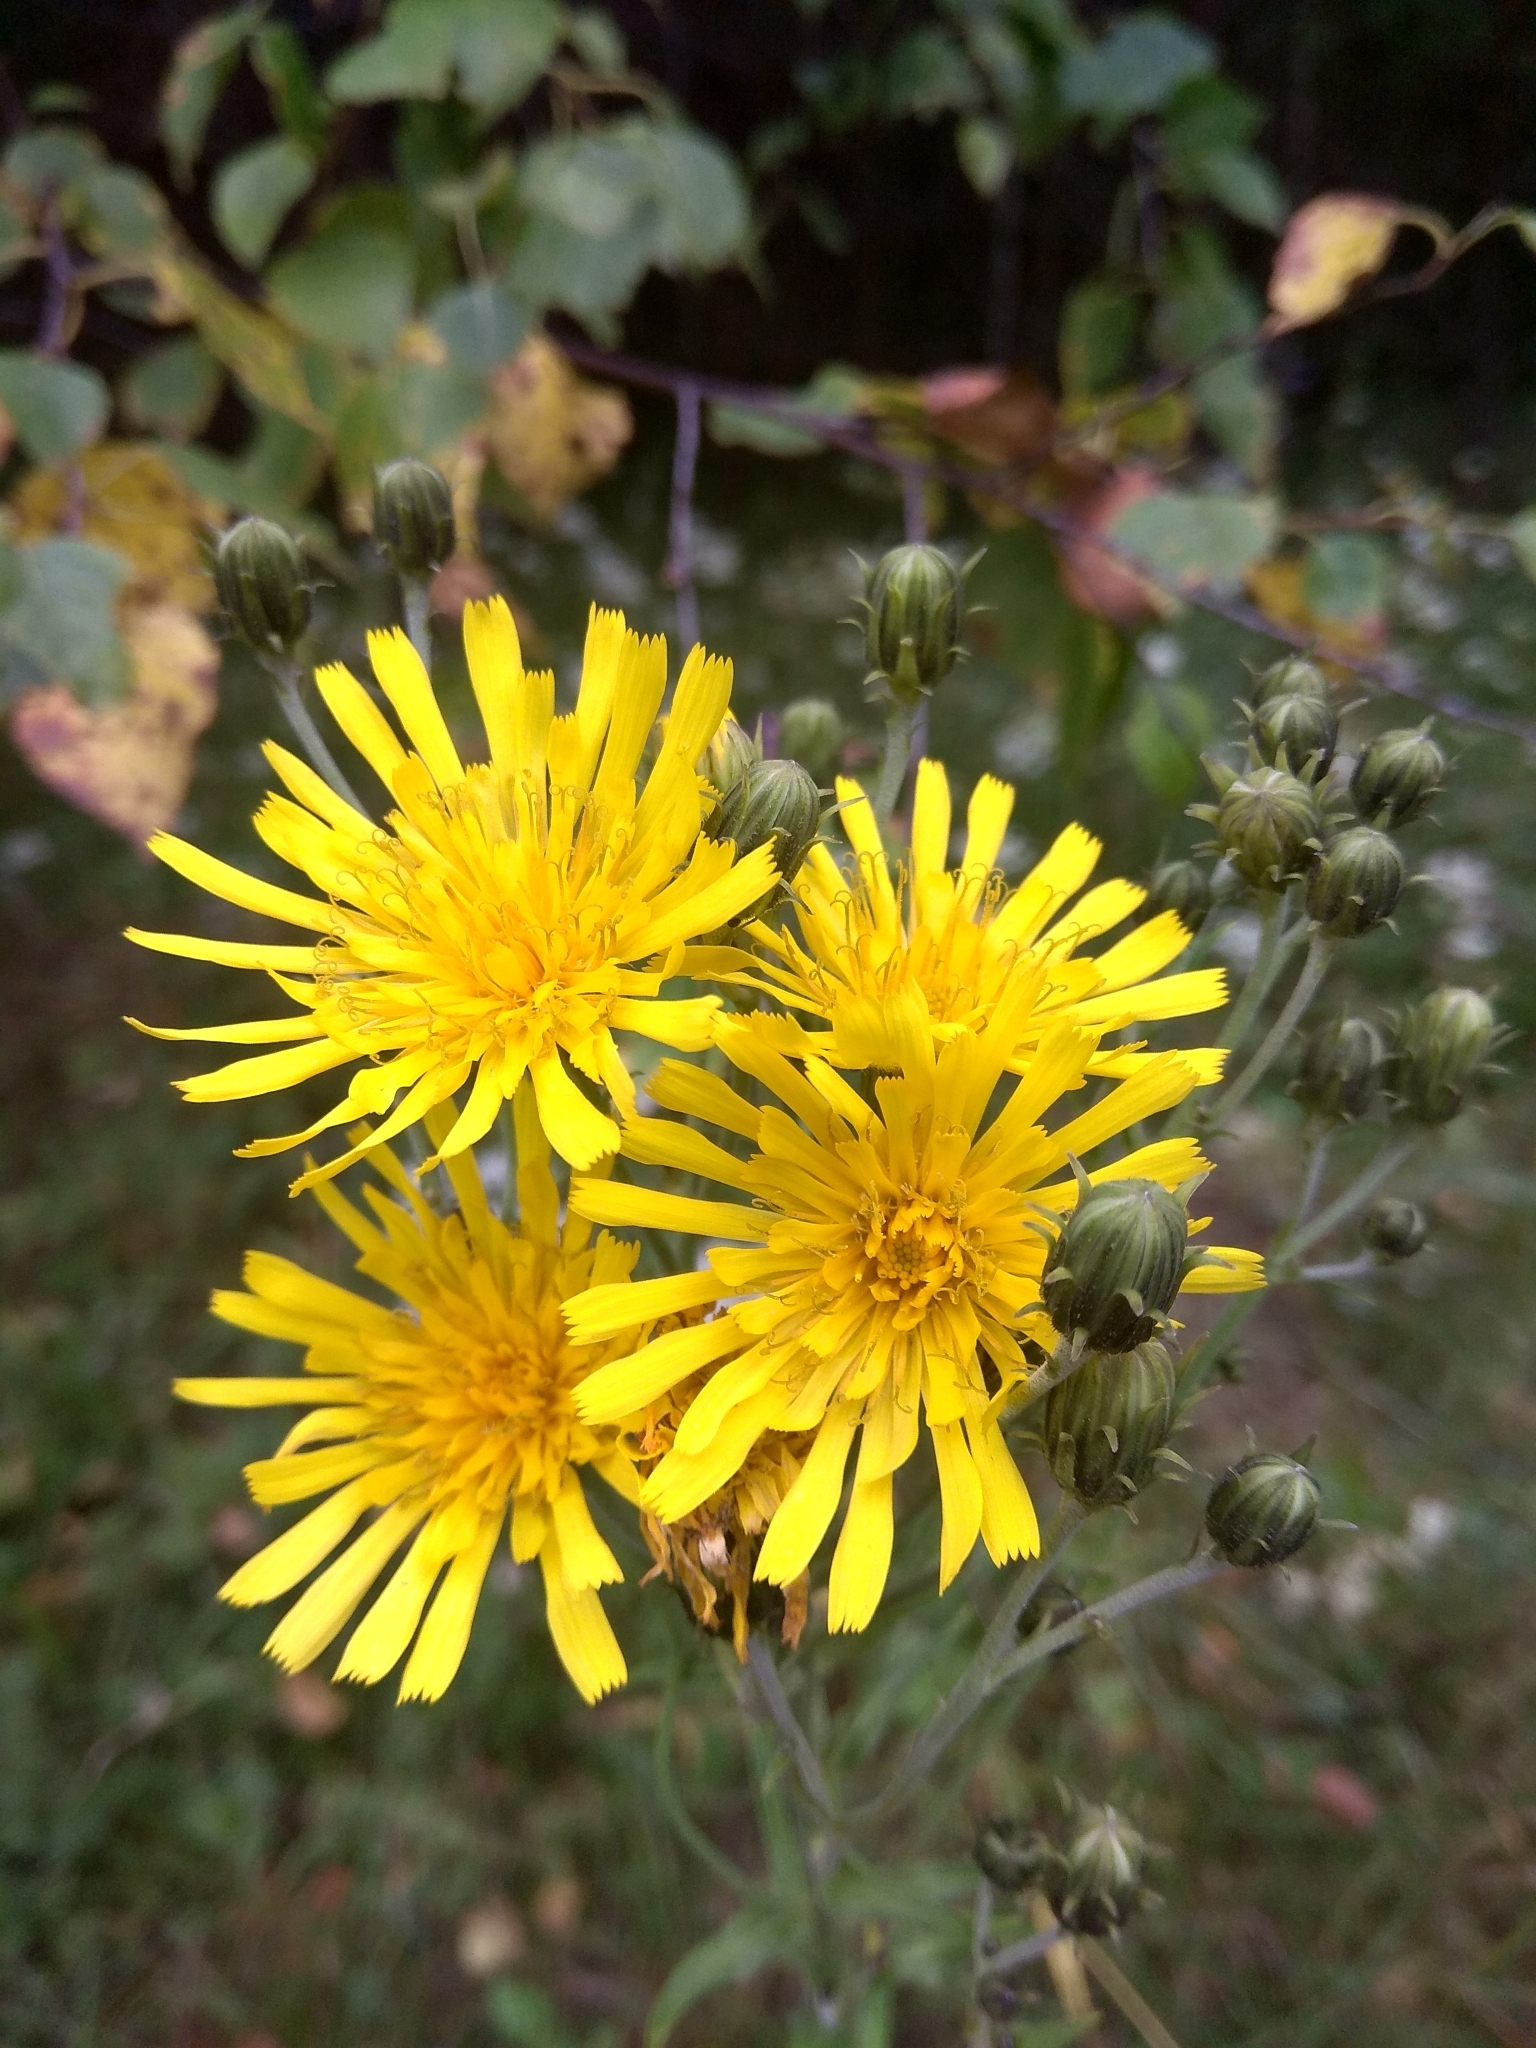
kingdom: Plantae
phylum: Tracheophyta
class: Magnoliopsida
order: Asterales
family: Asteraceae
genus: Hieracium
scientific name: Hieracium umbellatum
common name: Northern hawkweed
